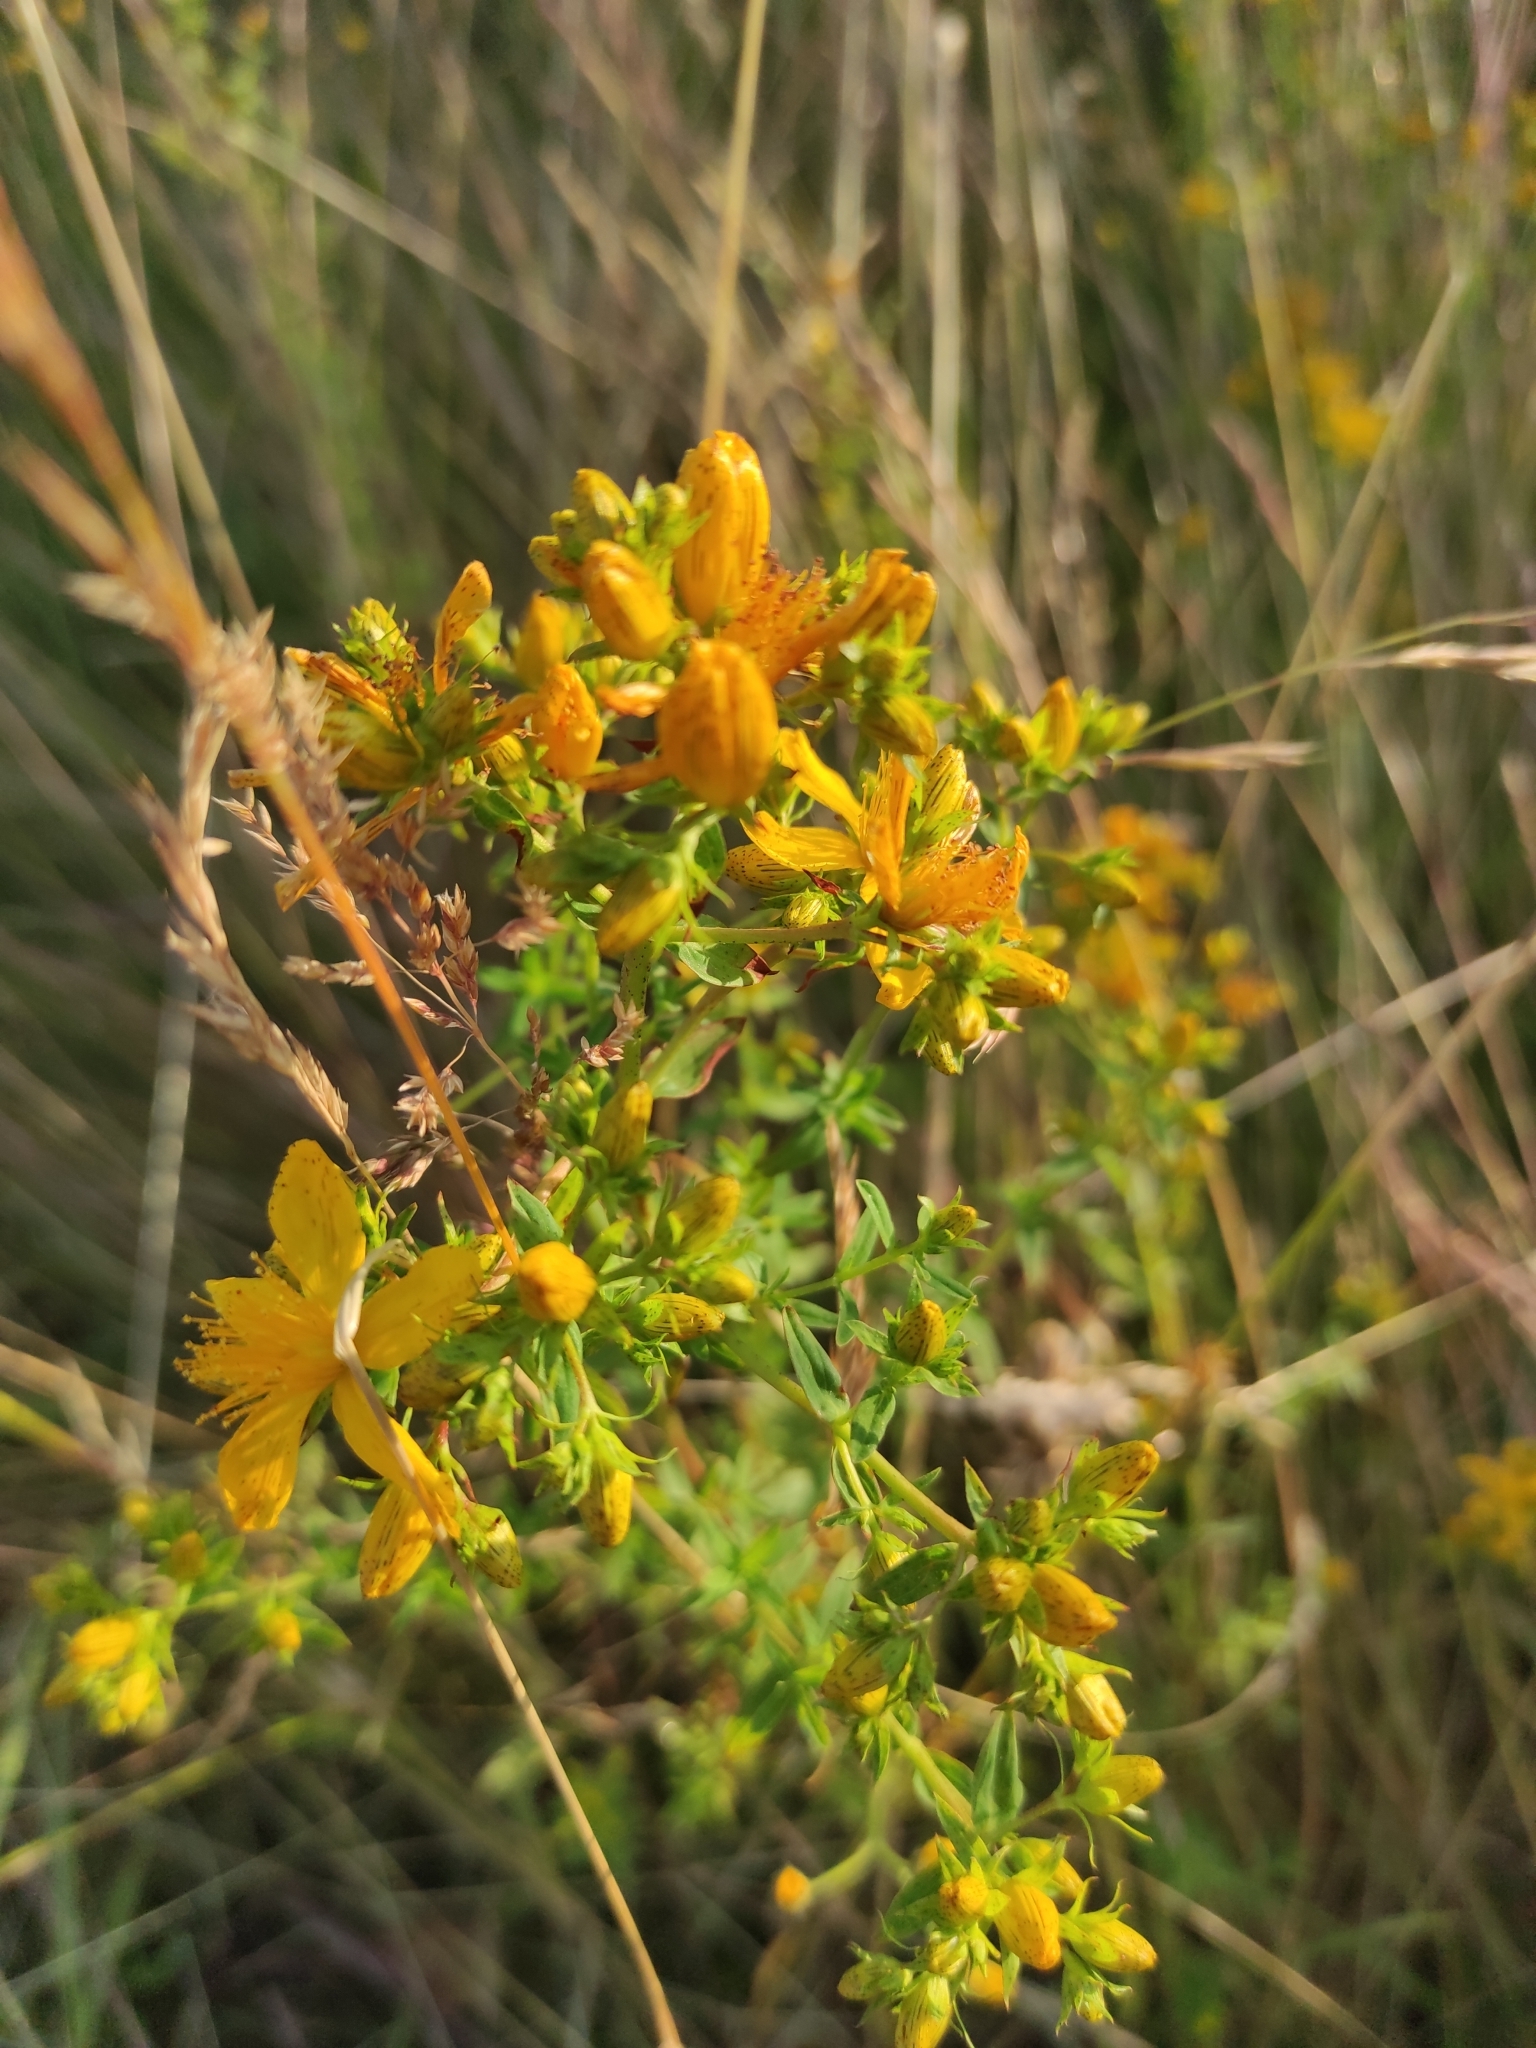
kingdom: Plantae
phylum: Tracheophyta
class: Magnoliopsida
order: Malpighiales
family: Hypericaceae
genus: Hypericum
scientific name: Hypericum perforatum
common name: Common st. johnswort
